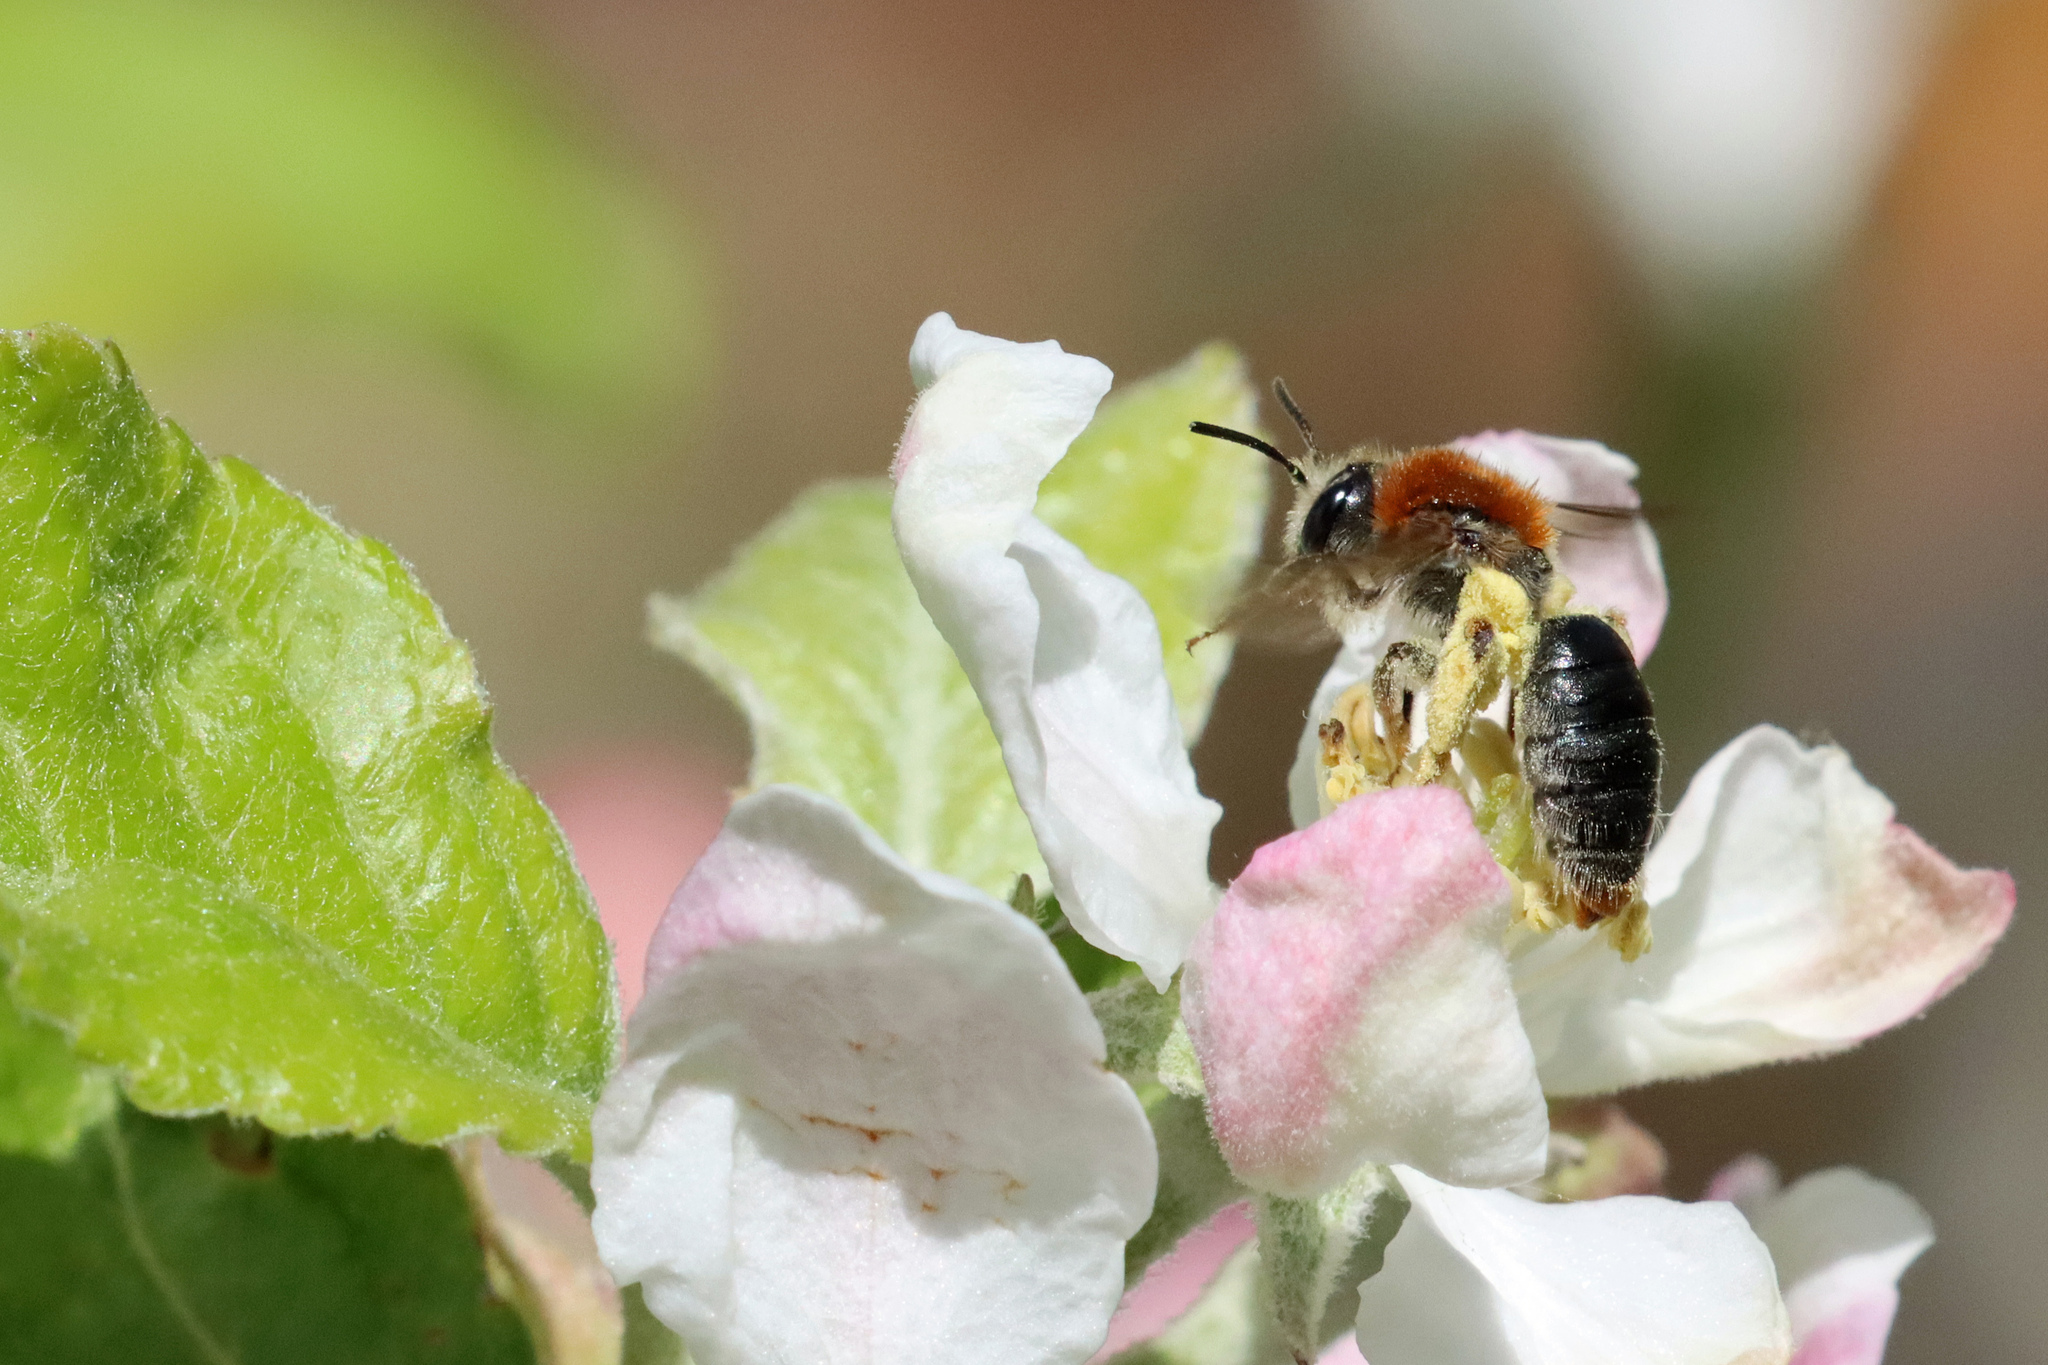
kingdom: Animalia
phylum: Arthropoda
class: Insecta
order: Hymenoptera
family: Andrenidae
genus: Andrena
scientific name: Andrena haemorrhoa
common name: Early mining bee
